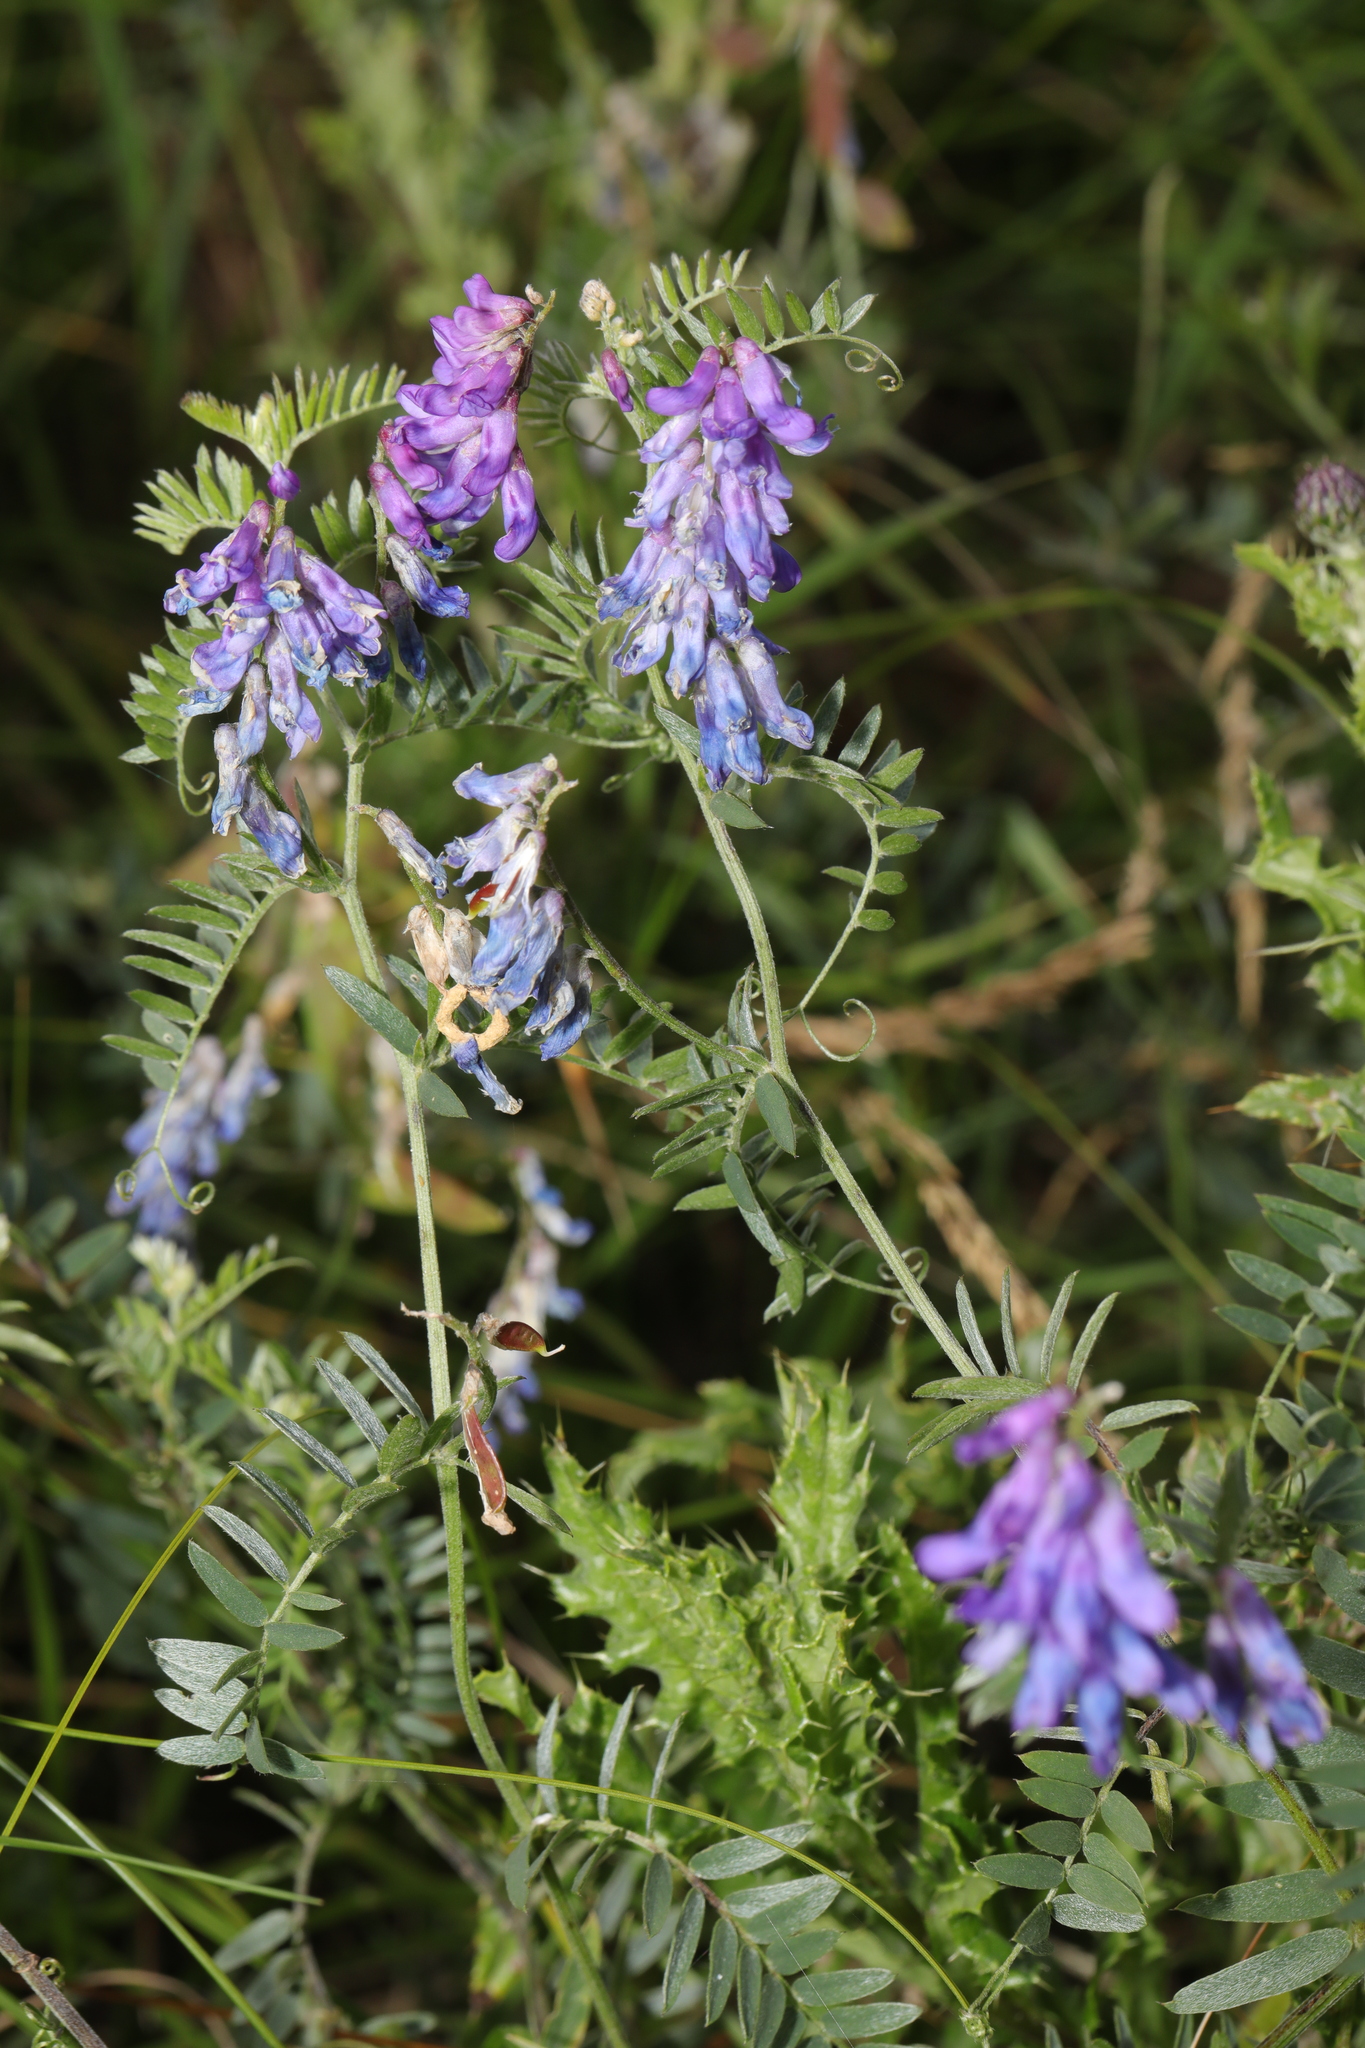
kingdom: Plantae
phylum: Tracheophyta
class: Magnoliopsida
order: Fabales
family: Fabaceae
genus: Vicia
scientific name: Vicia cracca
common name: Bird vetch
